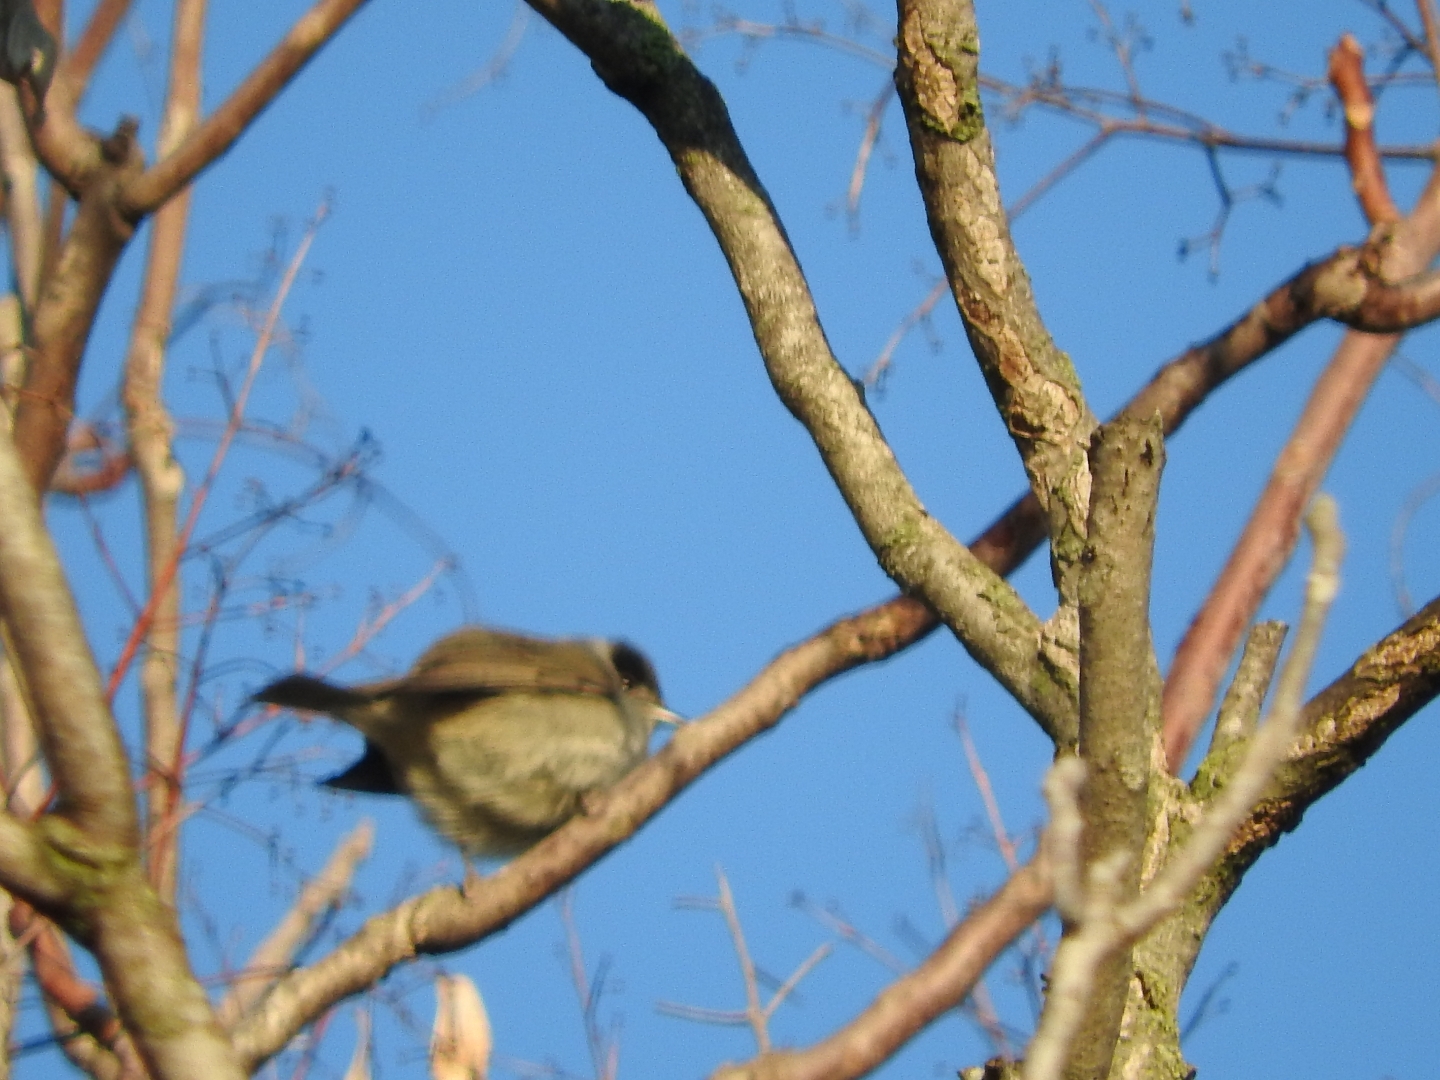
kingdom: Animalia
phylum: Chordata
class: Aves
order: Passeriformes
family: Sylviidae
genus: Sylvia
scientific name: Sylvia atricapilla
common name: Eurasian blackcap
